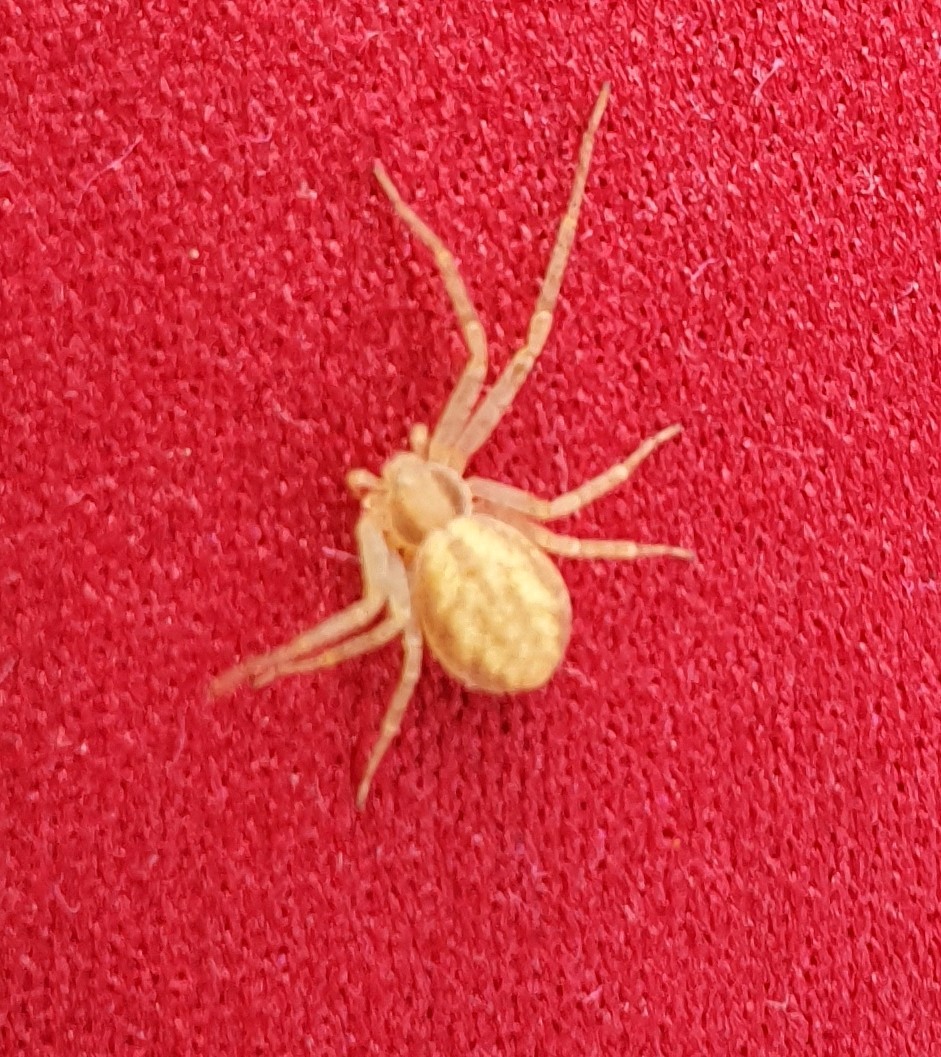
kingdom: Animalia
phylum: Arthropoda
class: Arachnida
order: Araneae
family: Philodromidae
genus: Philodromus
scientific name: Philodromus
